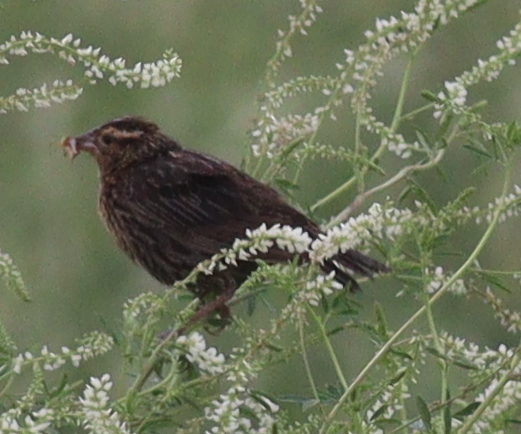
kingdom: Animalia
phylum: Chordata
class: Aves
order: Passeriformes
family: Icteridae
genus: Sturnella
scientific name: Sturnella superciliaris
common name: White-browed blackbird
